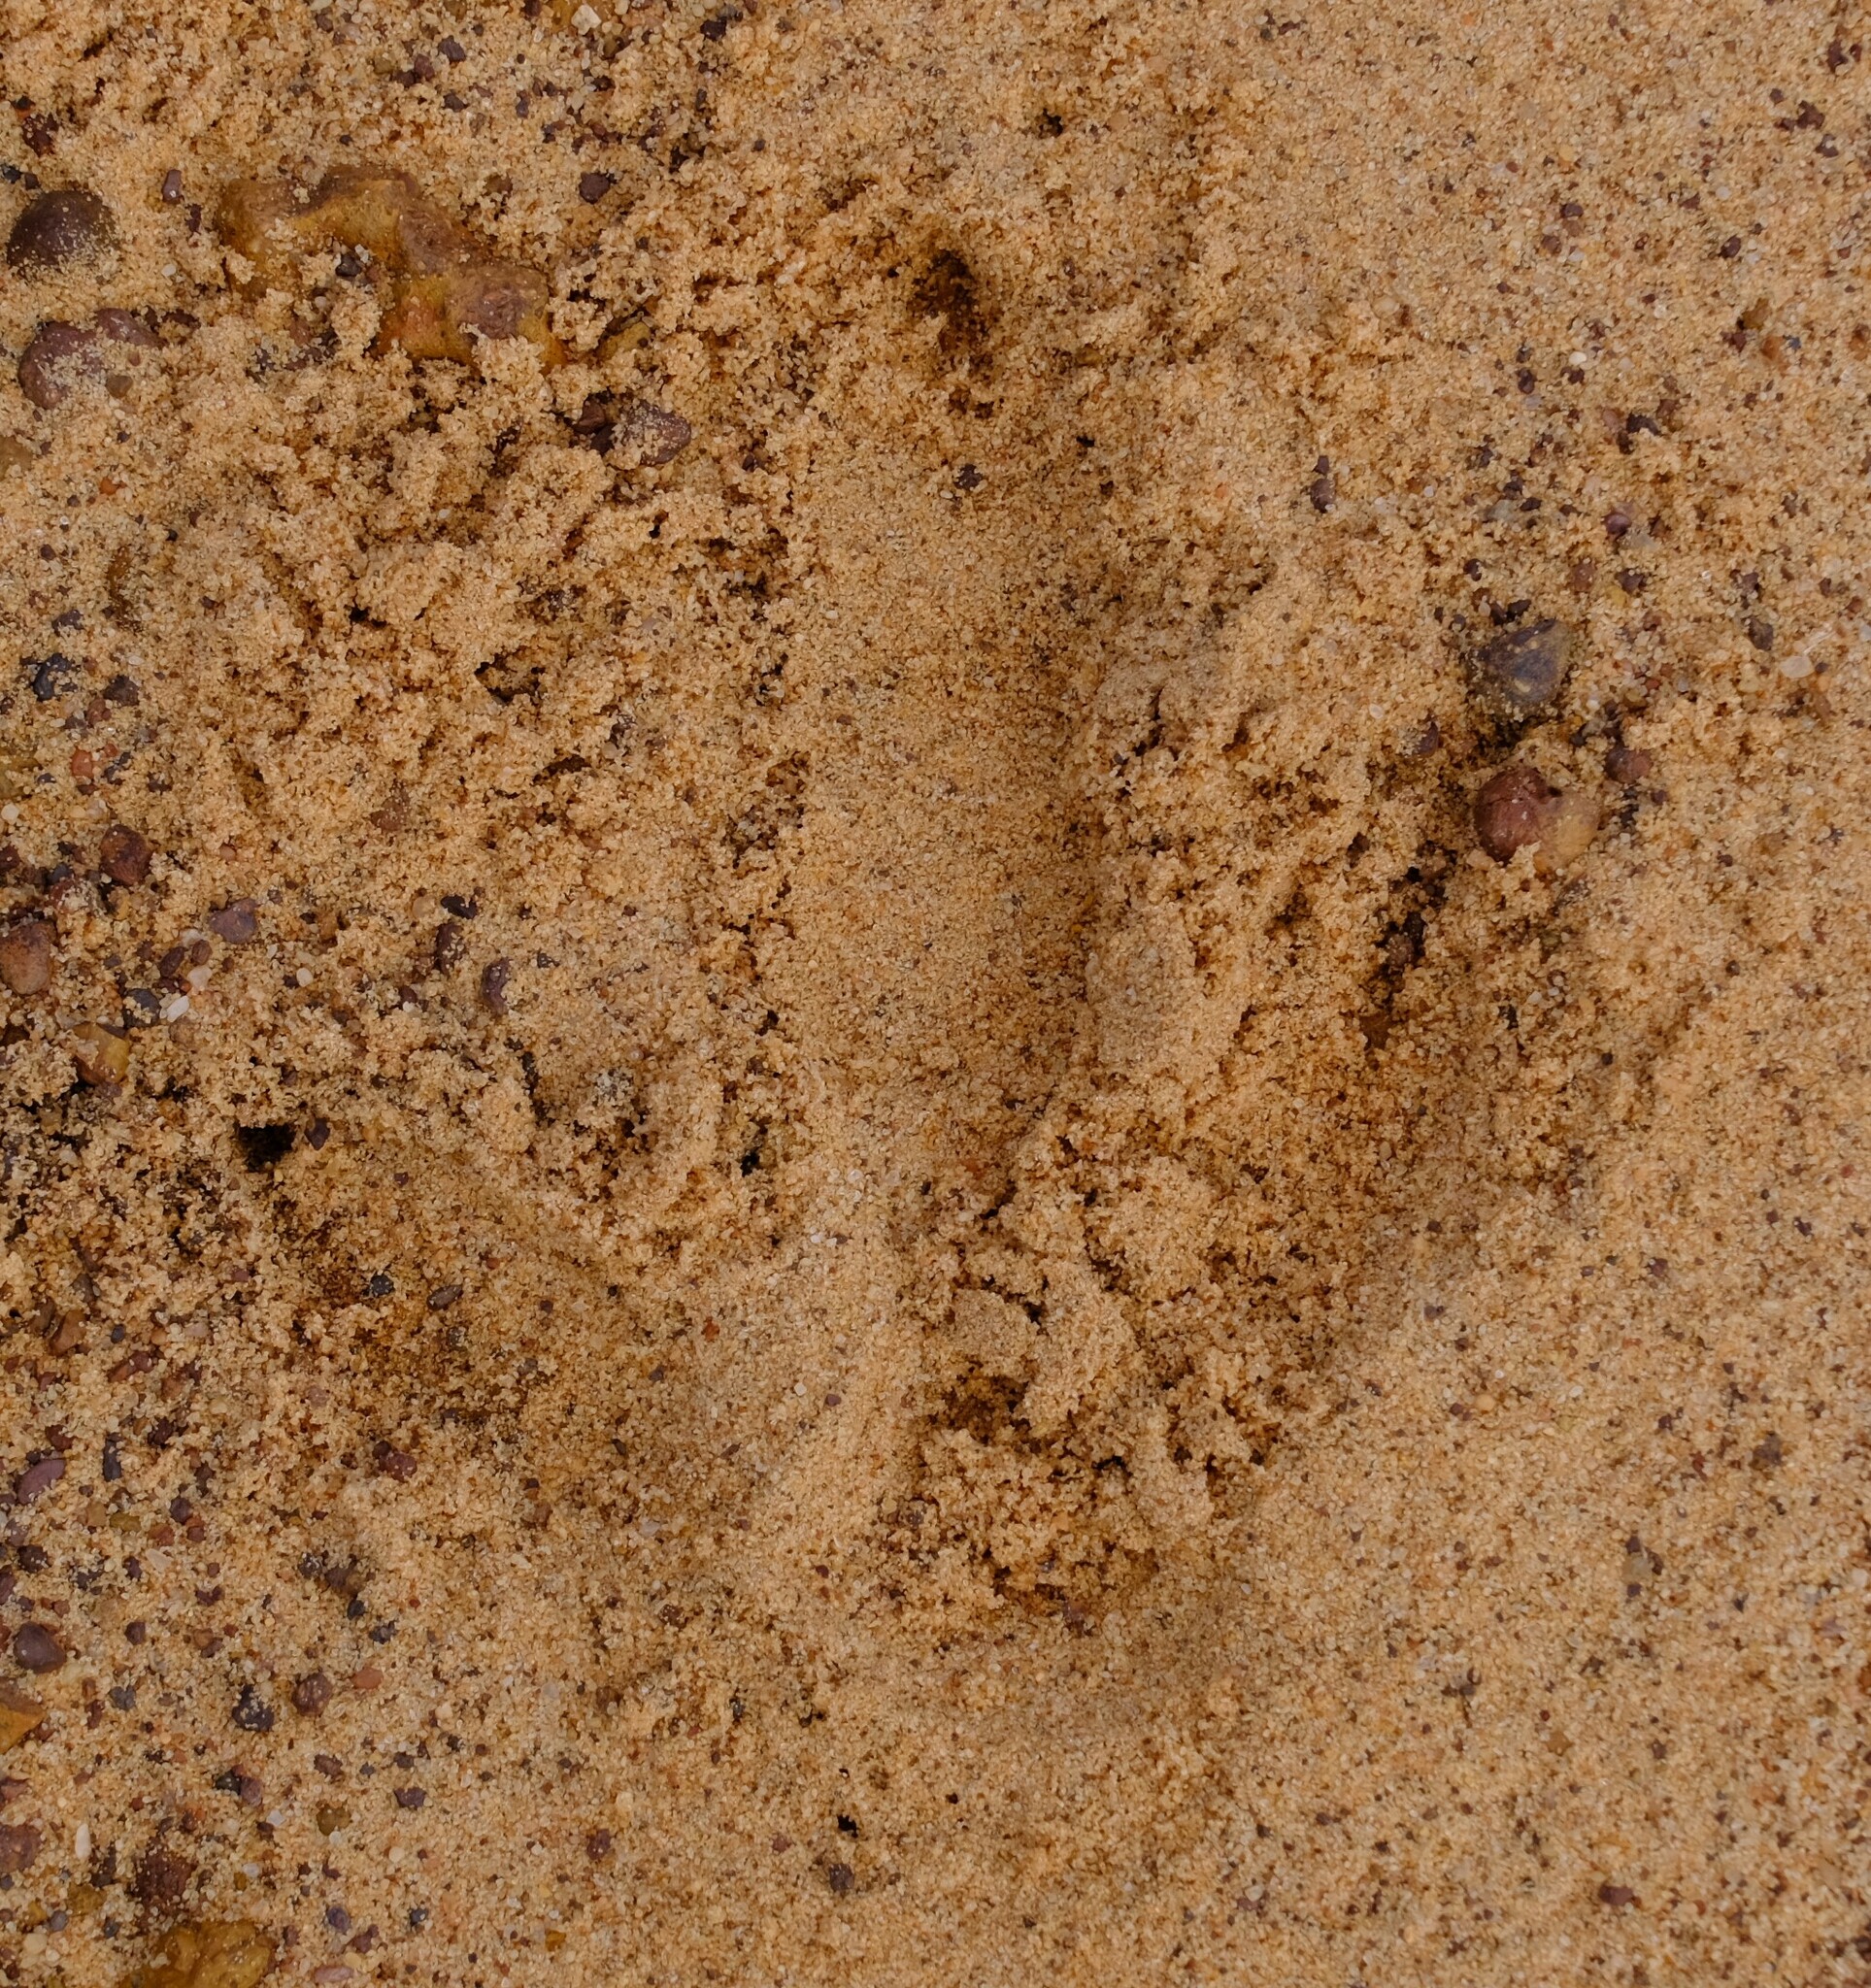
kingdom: Animalia
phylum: Chordata
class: Aves
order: Casuariiformes
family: Dromaiidae
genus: Dromaius
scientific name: Dromaius novaehollandiae
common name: Emu
